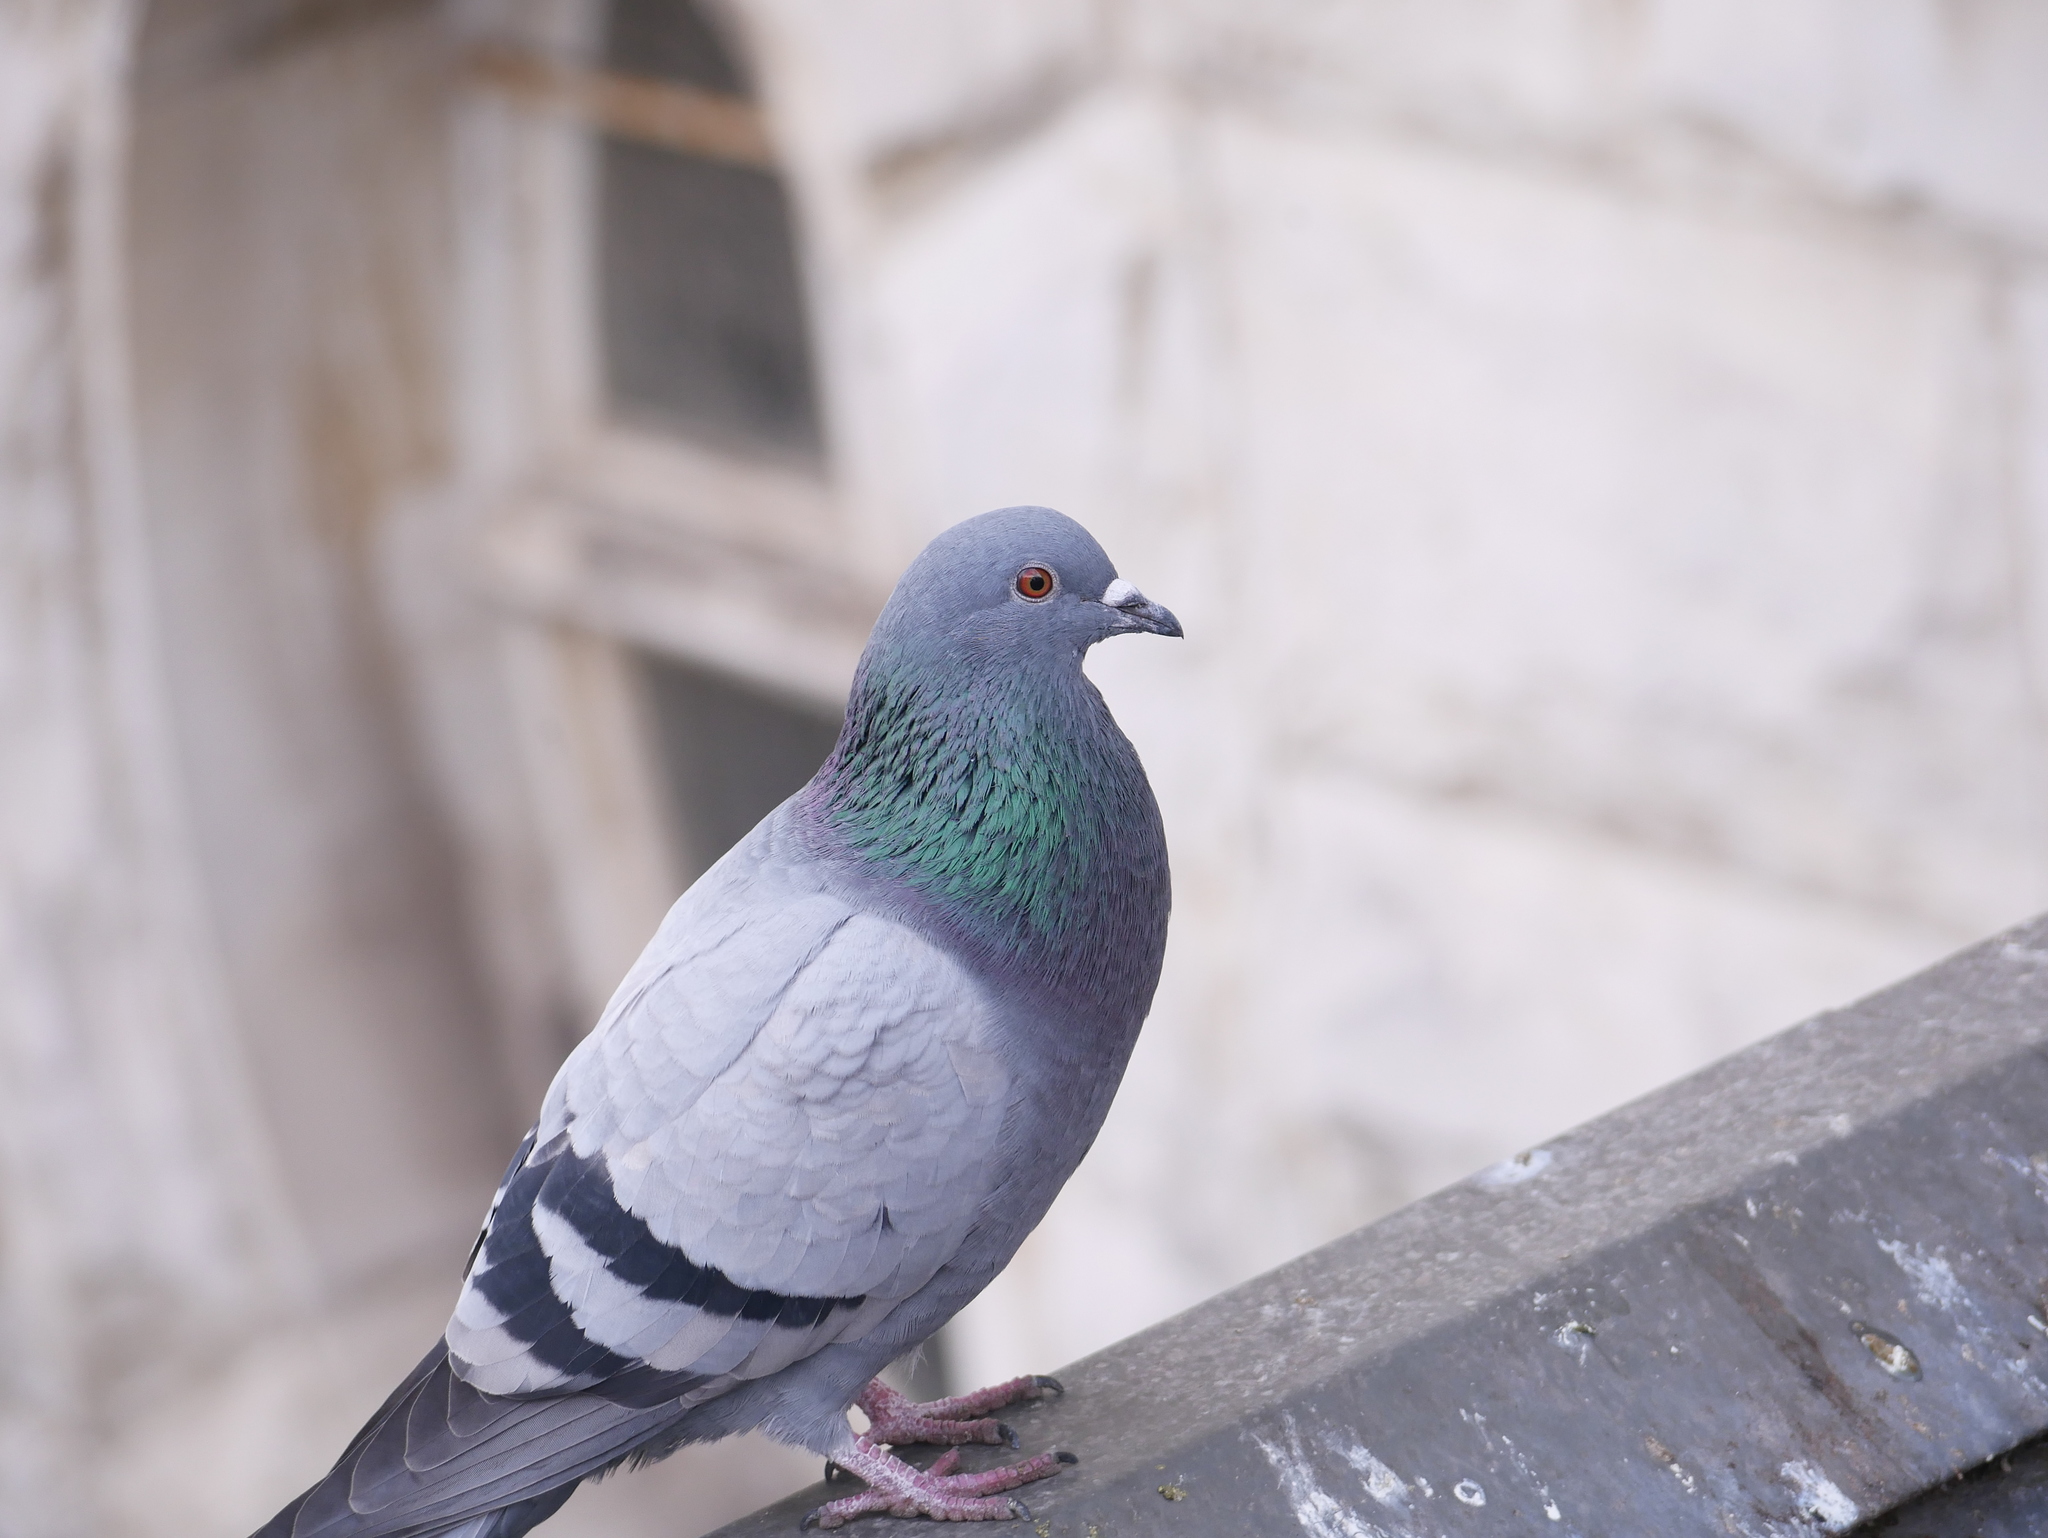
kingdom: Animalia
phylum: Chordata
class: Aves
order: Columbiformes
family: Columbidae
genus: Columba
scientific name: Columba livia
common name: Rock pigeon
